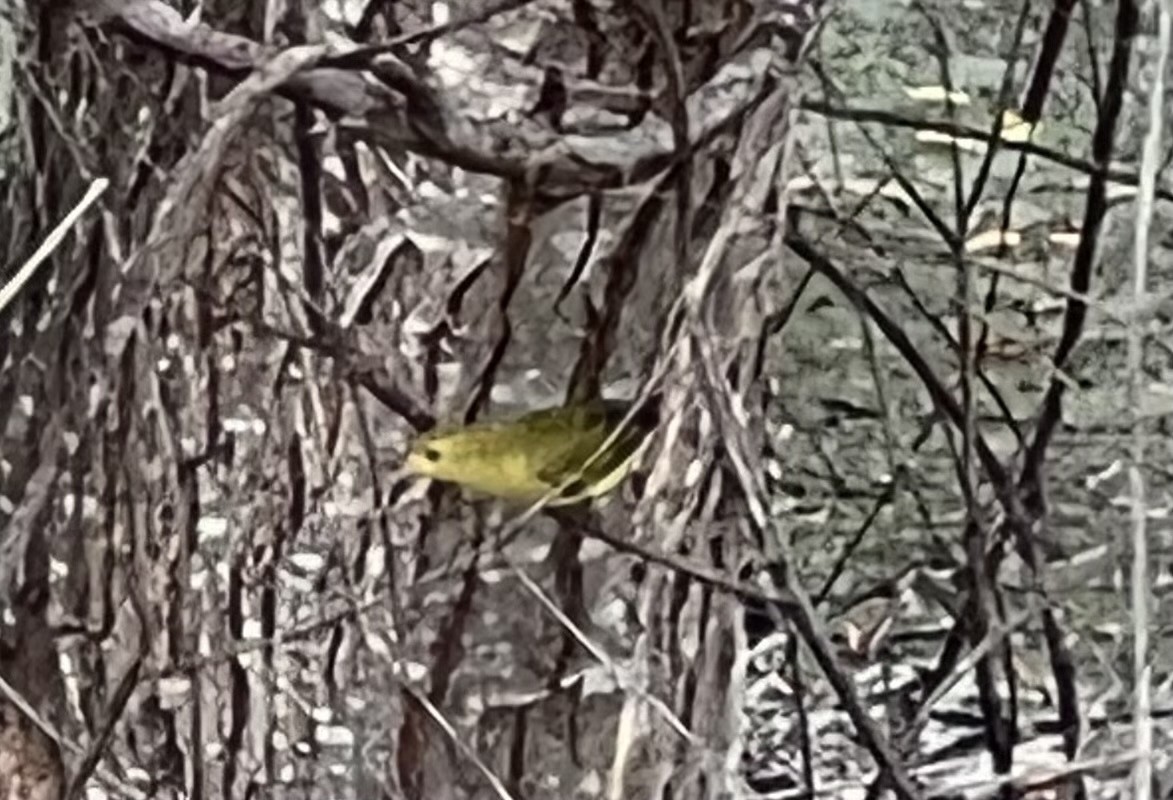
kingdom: Animalia
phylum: Chordata
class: Aves
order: Passeriformes
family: Parulidae
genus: Cardellina
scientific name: Cardellina pusilla
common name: Wilson's warbler
